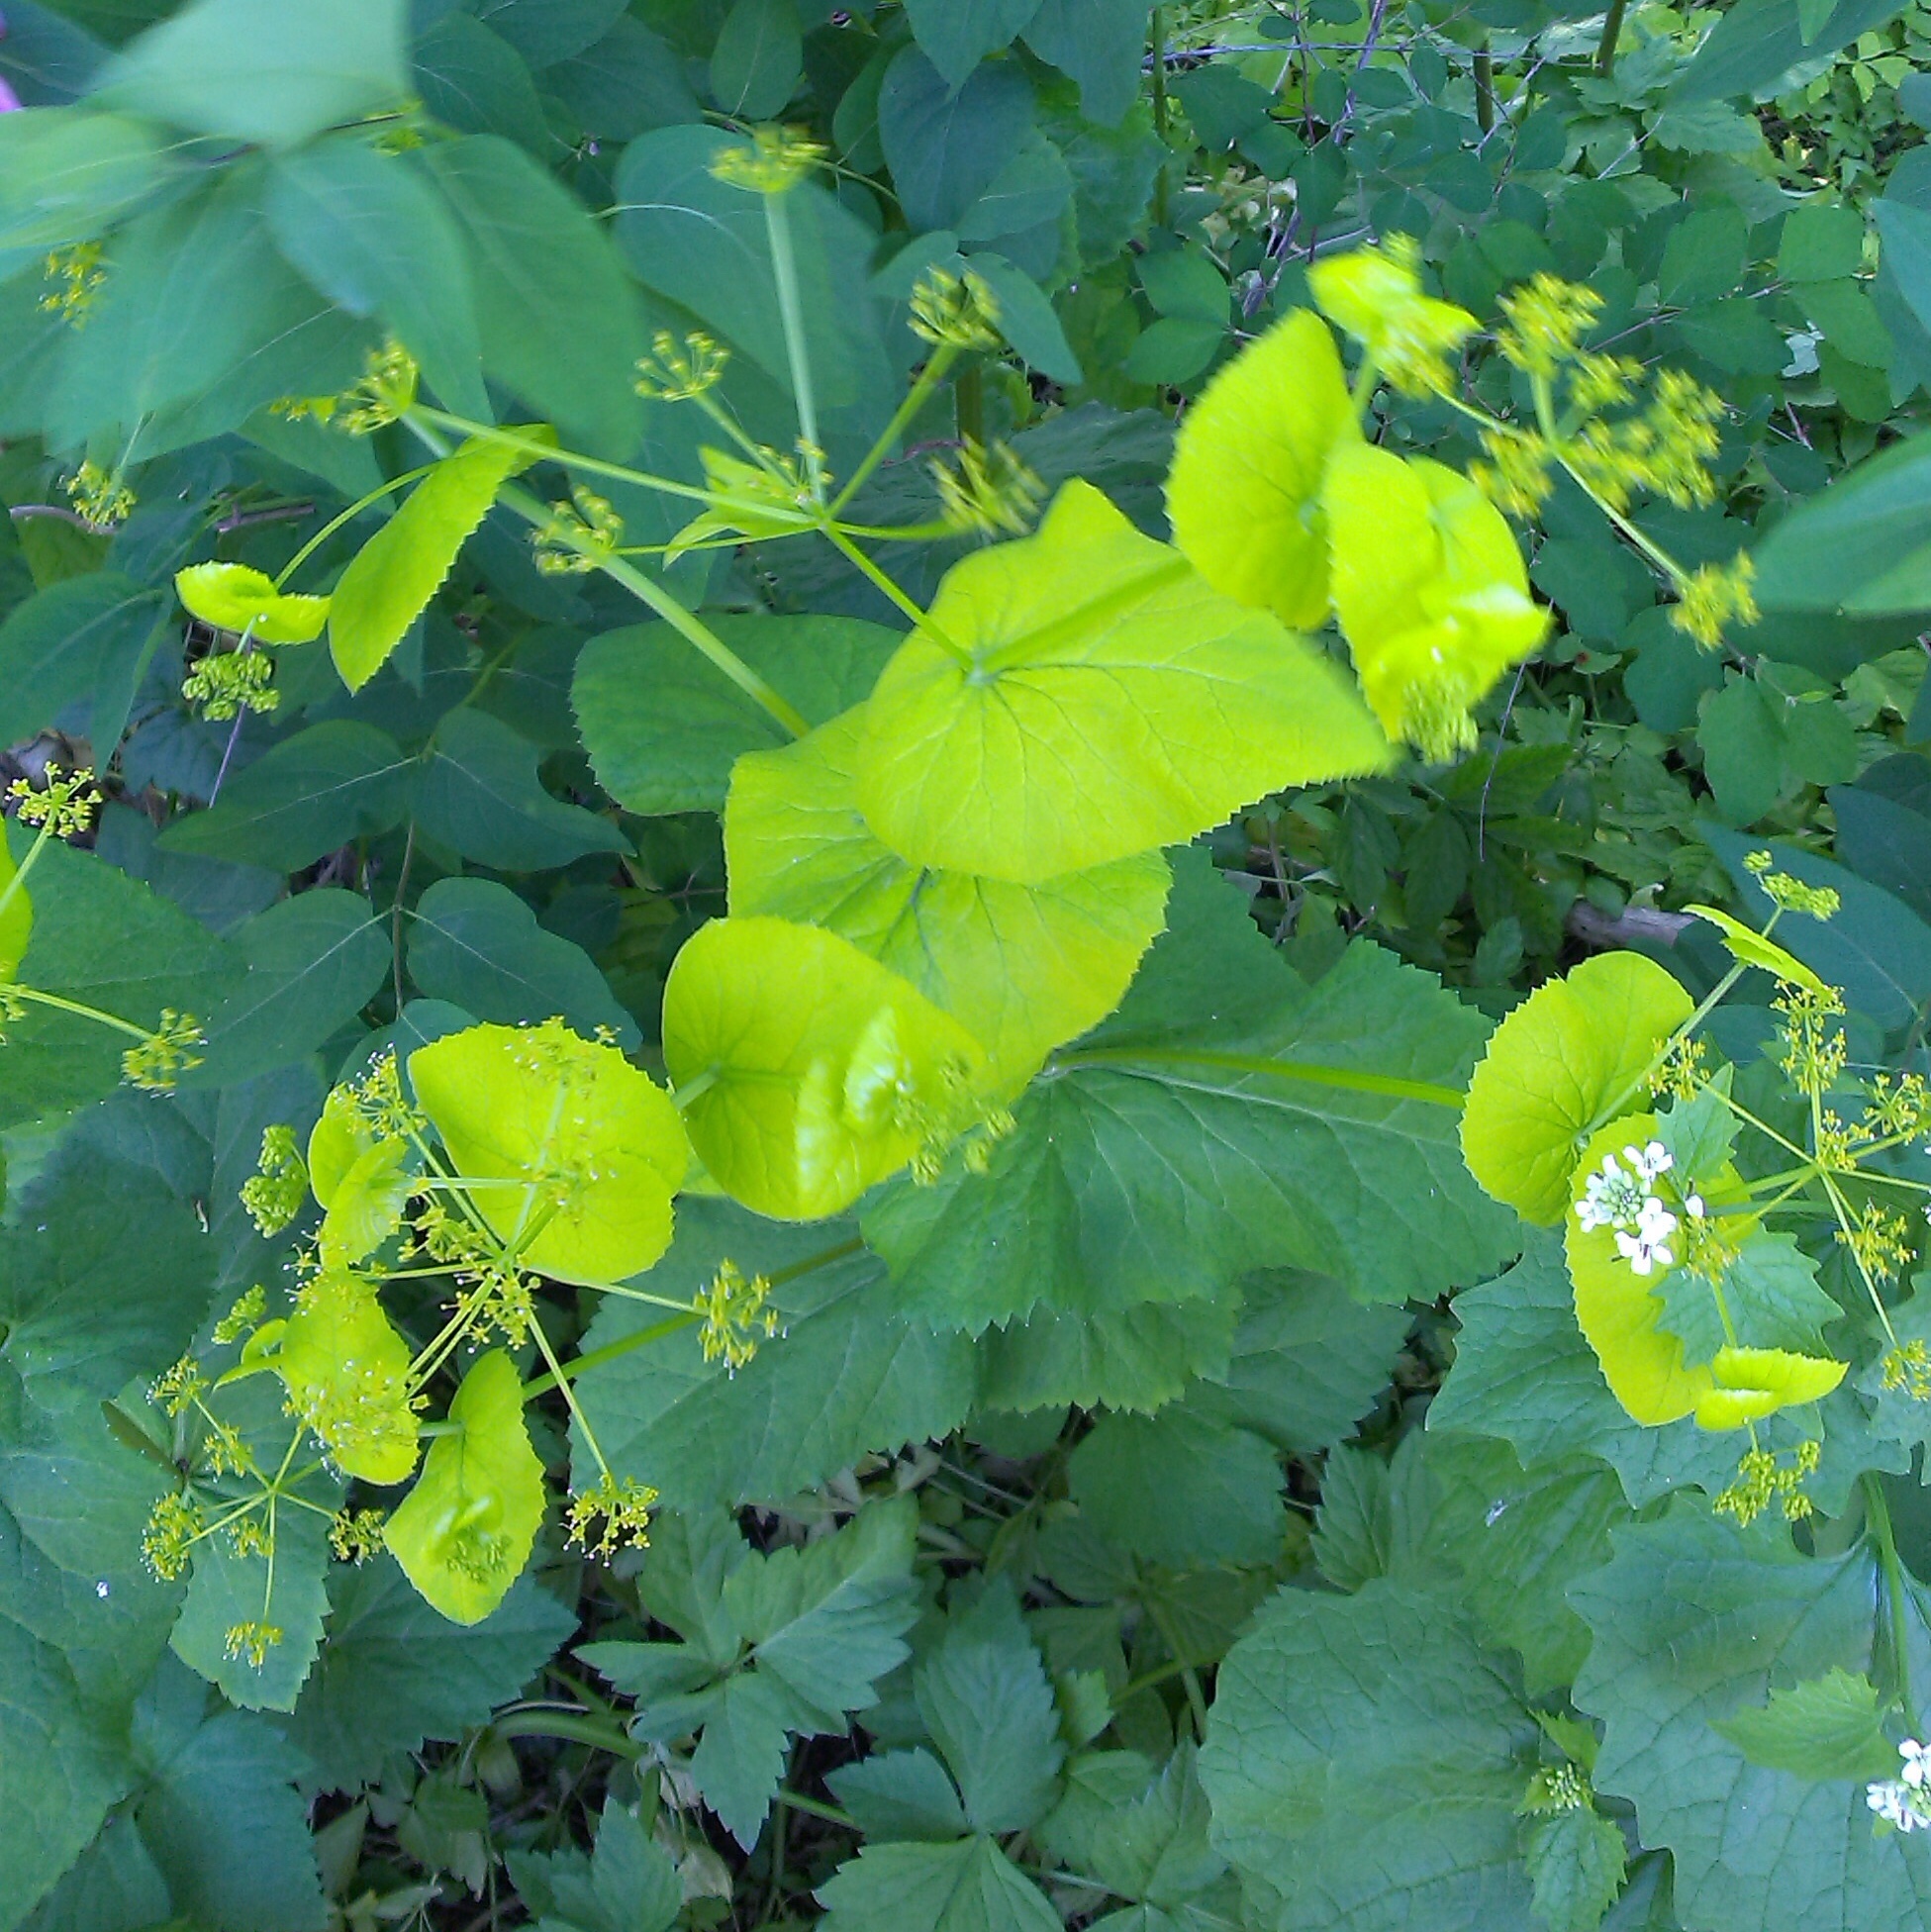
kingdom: Plantae
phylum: Tracheophyta
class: Magnoliopsida
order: Apiales
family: Apiaceae
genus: Smyrnium
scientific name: Smyrnium perfoliatum
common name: Perfoliate alexanders
